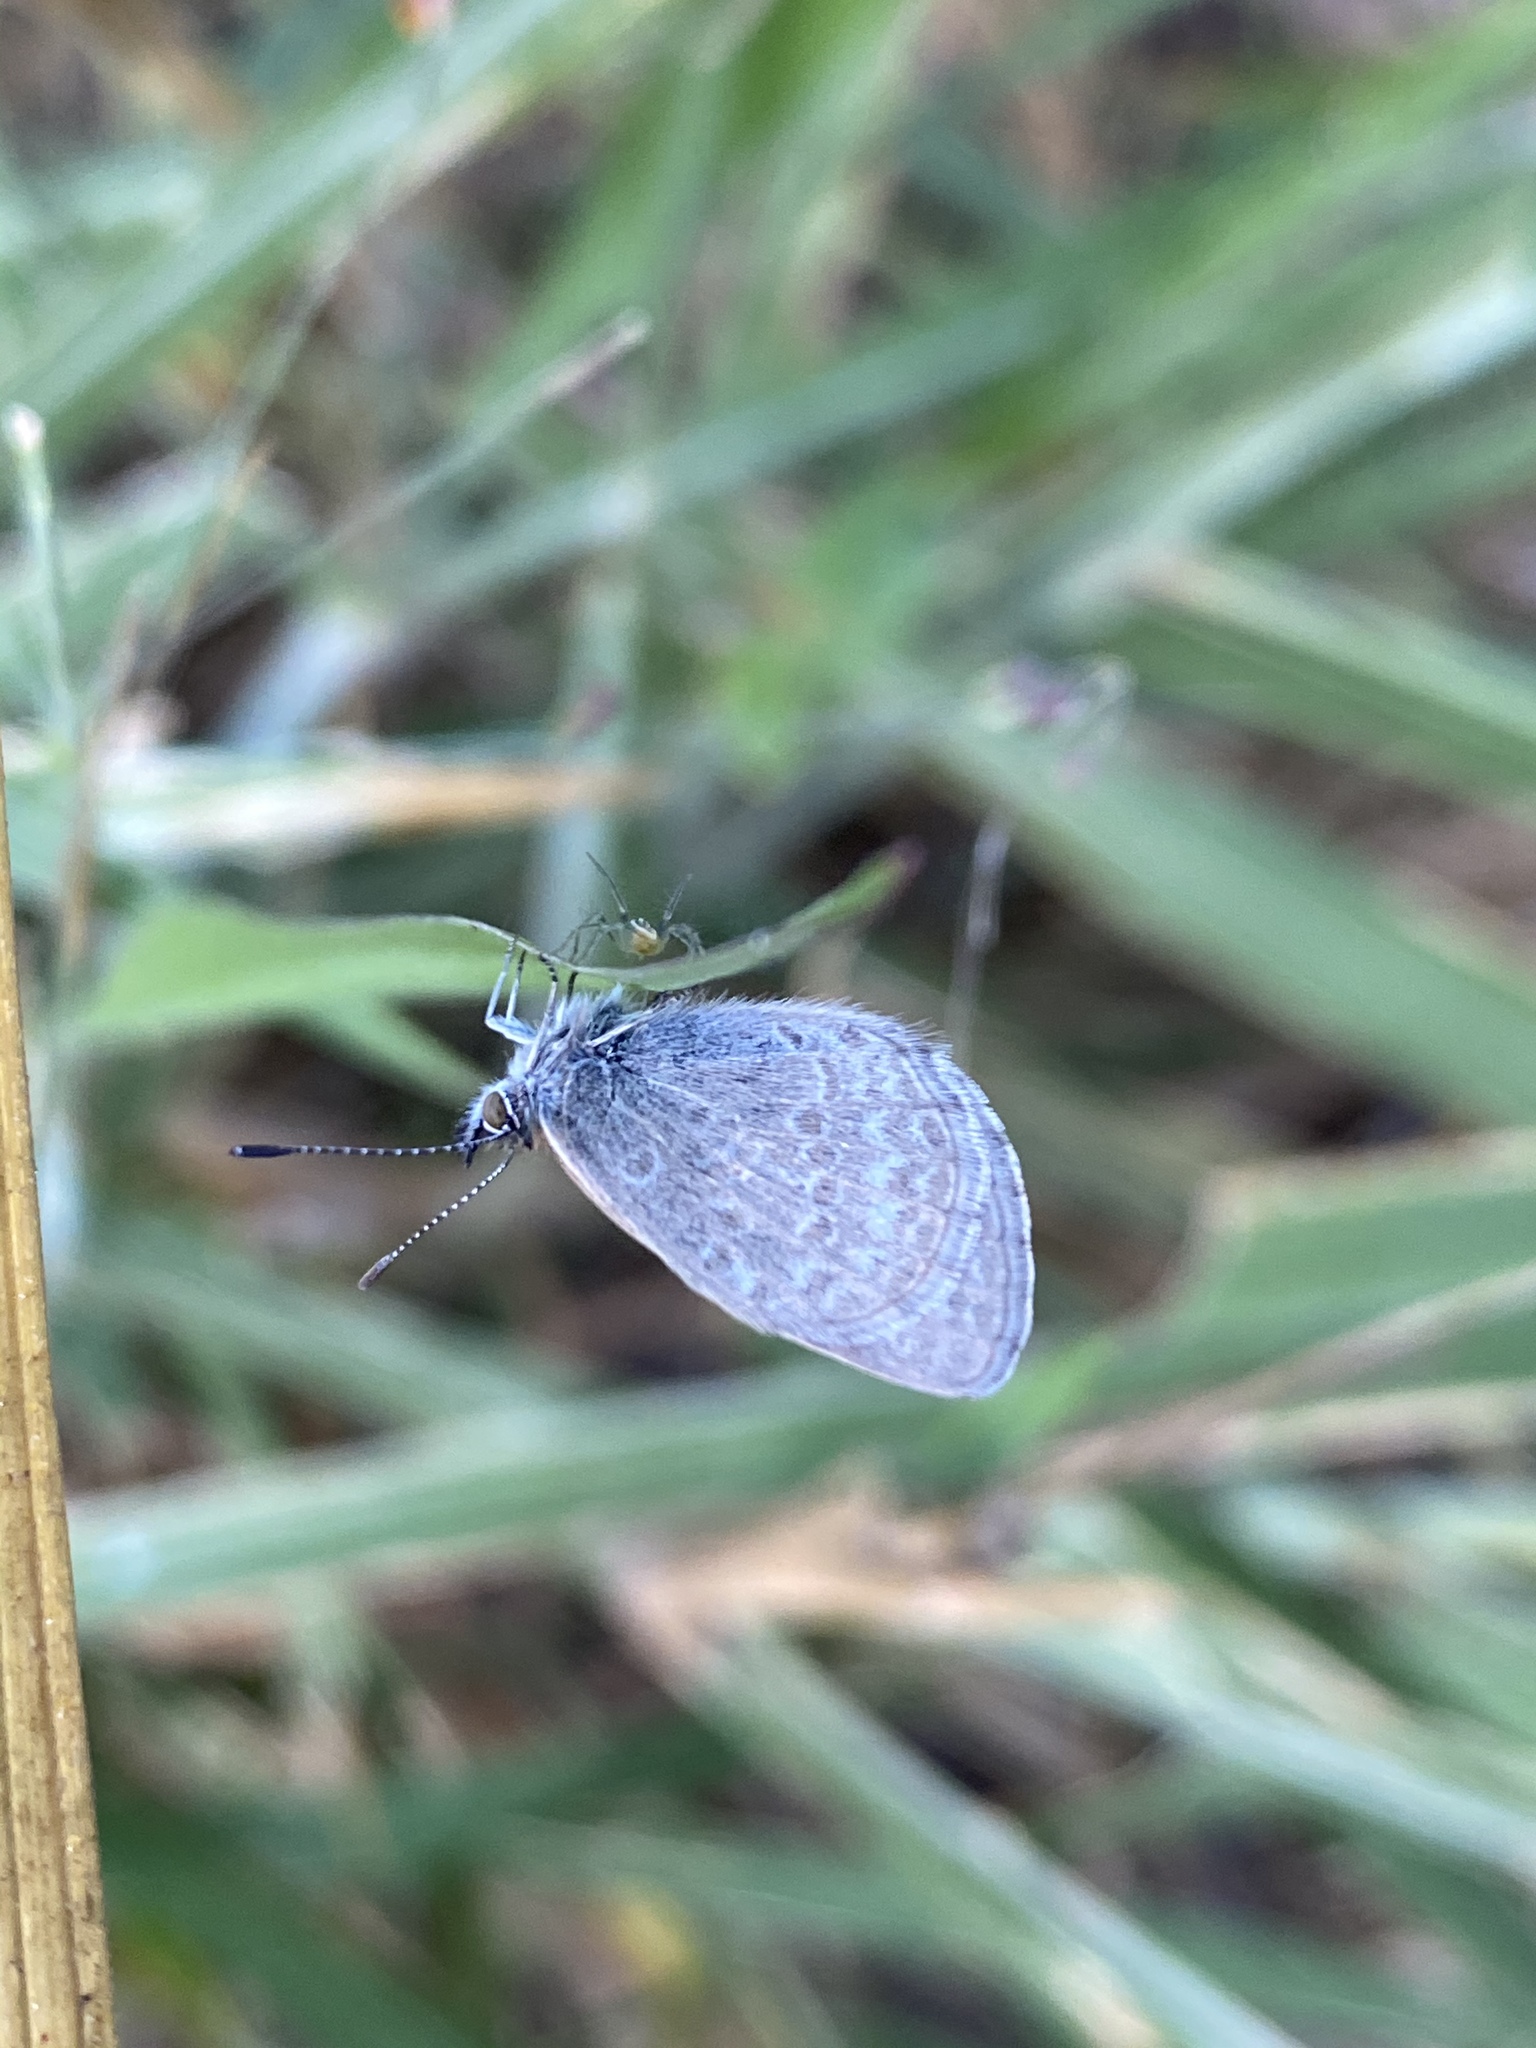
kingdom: Animalia
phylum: Arthropoda
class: Insecta
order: Lepidoptera
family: Lycaenidae
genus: Zizina
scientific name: Zizina labradus
